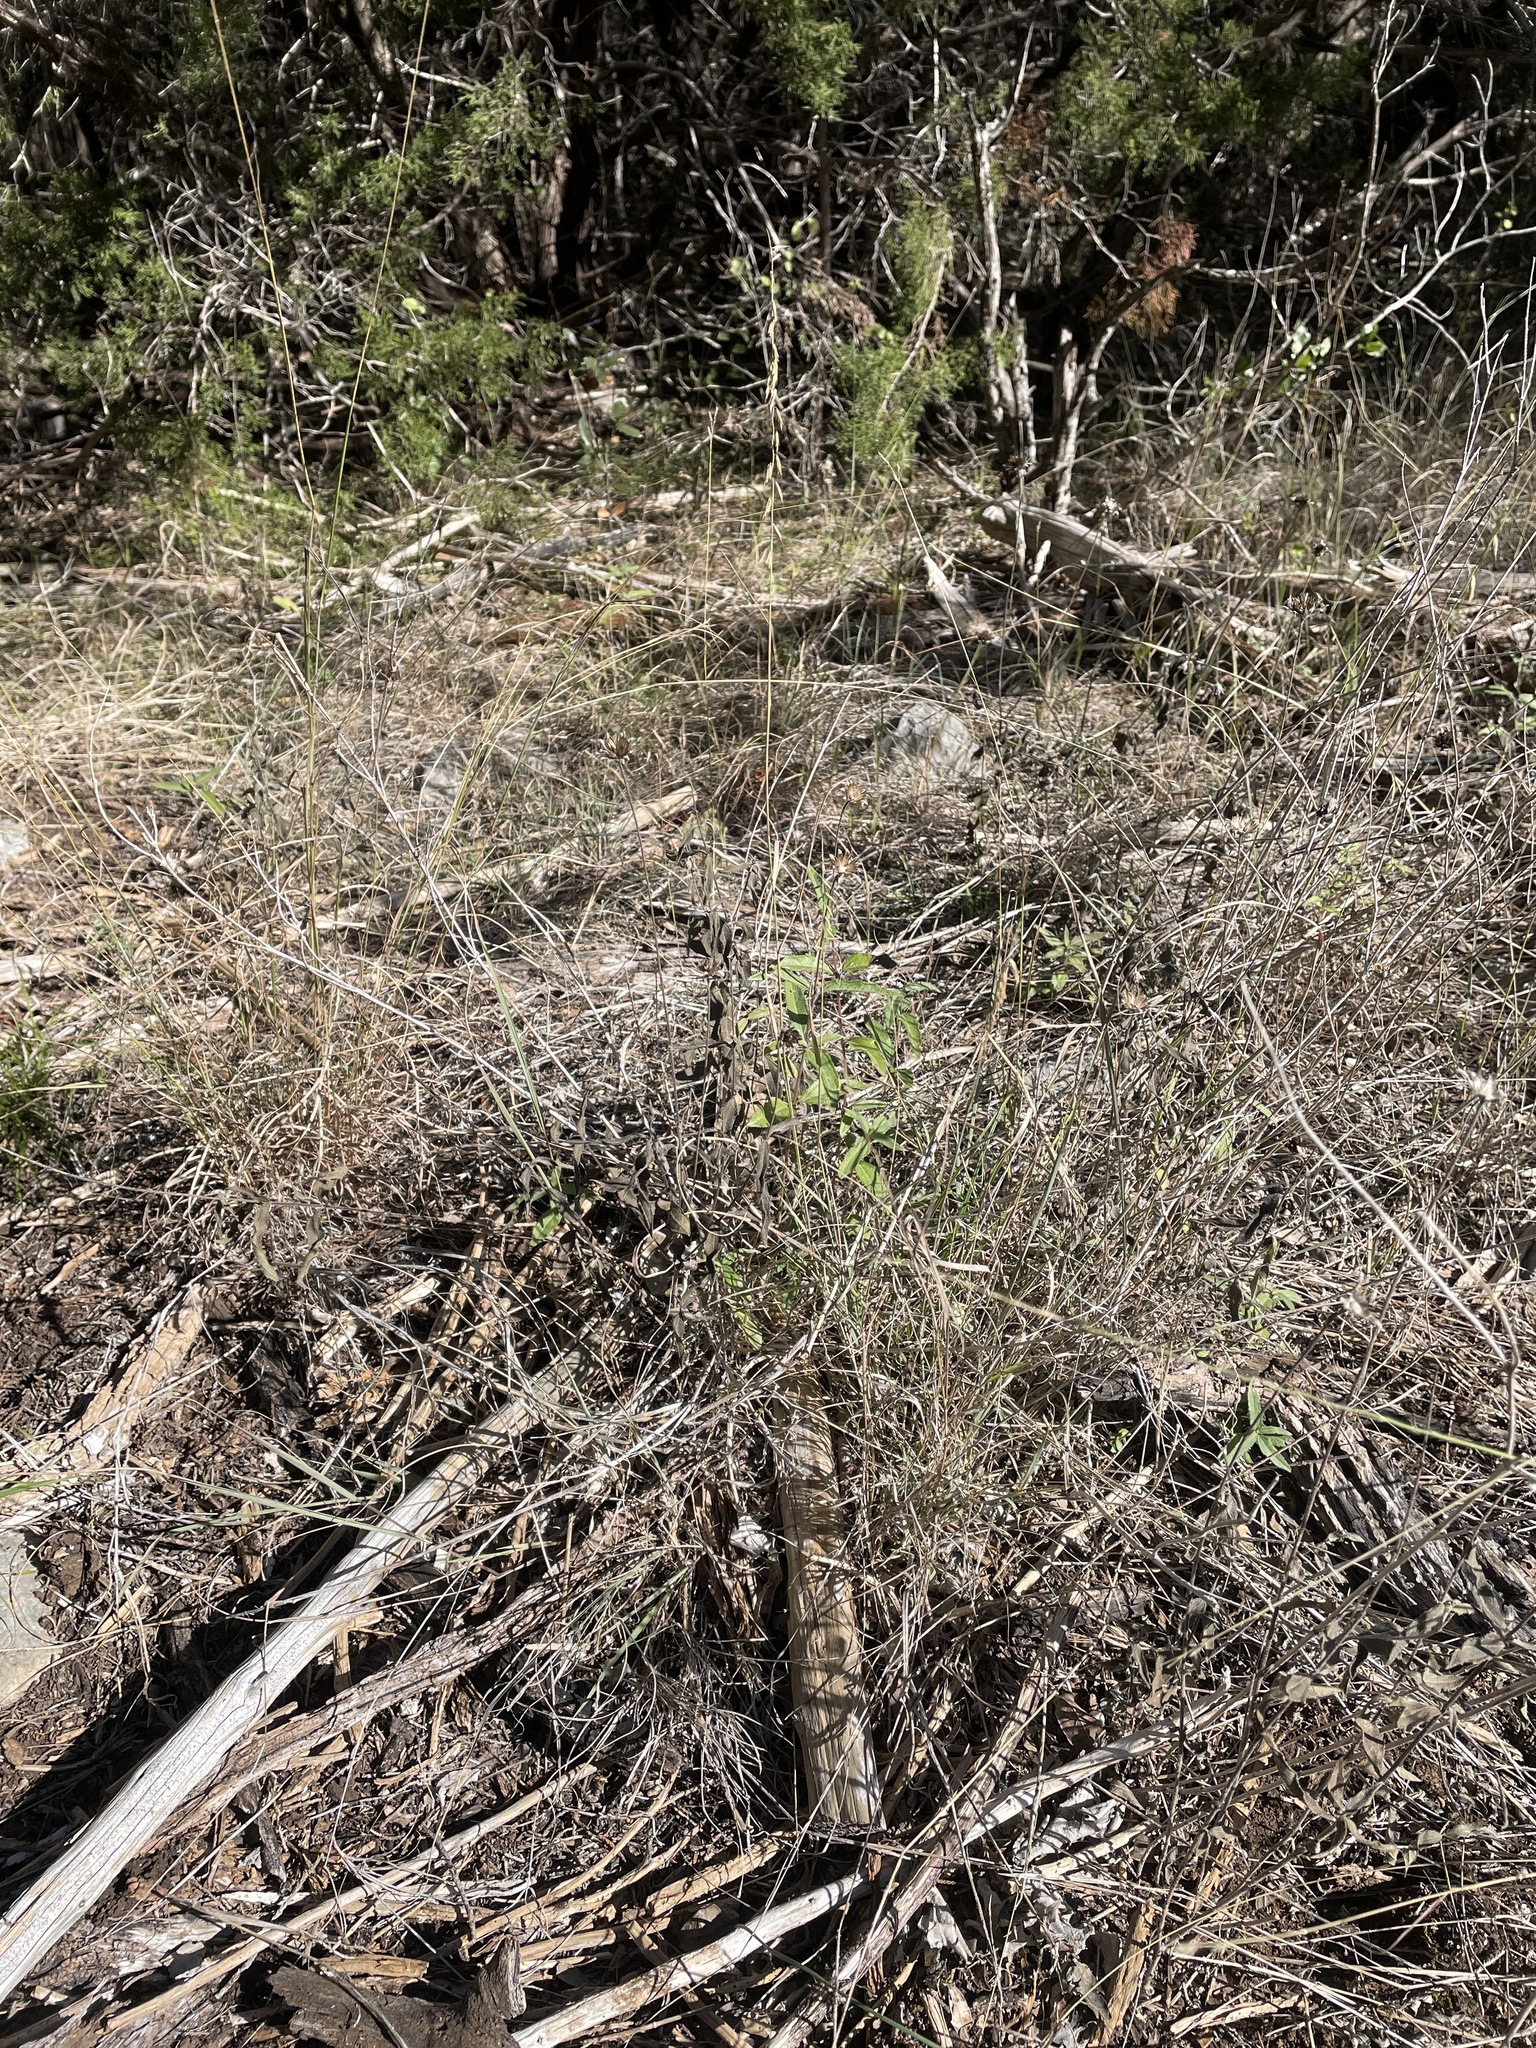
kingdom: Plantae
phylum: Tracheophyta
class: Liliopsida
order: Poales
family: Poaceae
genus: Bouteloua
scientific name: Bouteloua curtipendula
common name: Side-oats grama
